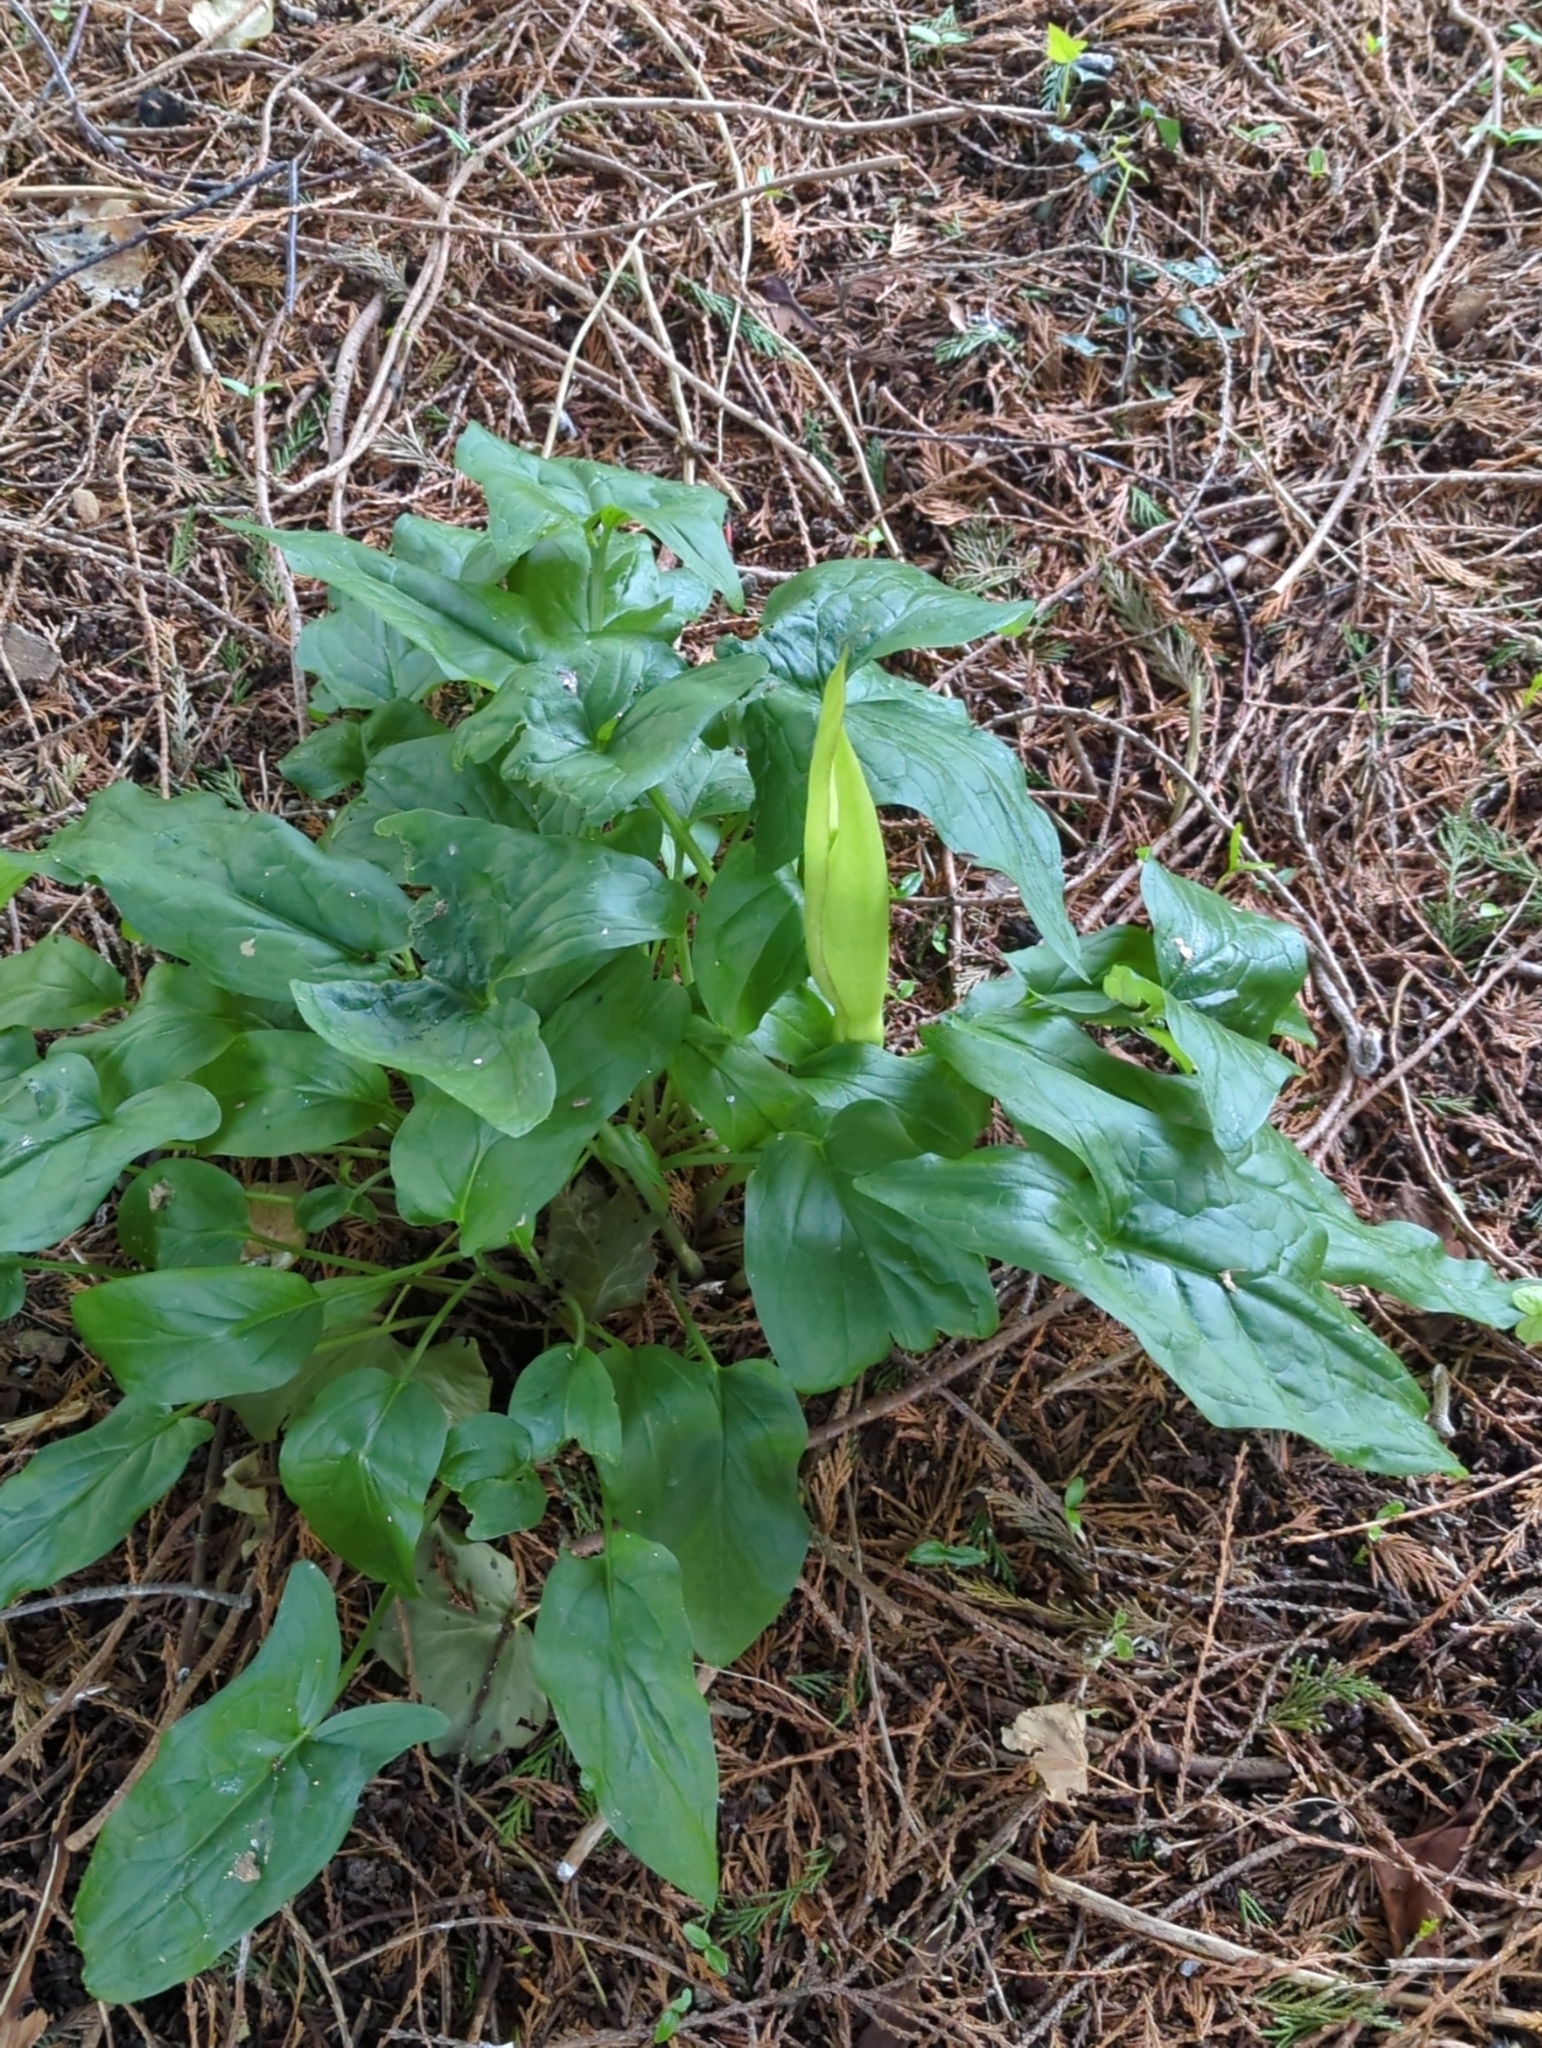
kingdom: Plantae
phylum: Tracheophyta
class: Liliopsida
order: Alismatales
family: Araceae
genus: Arum
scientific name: Arum maculatum
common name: Lords-and-ladies
